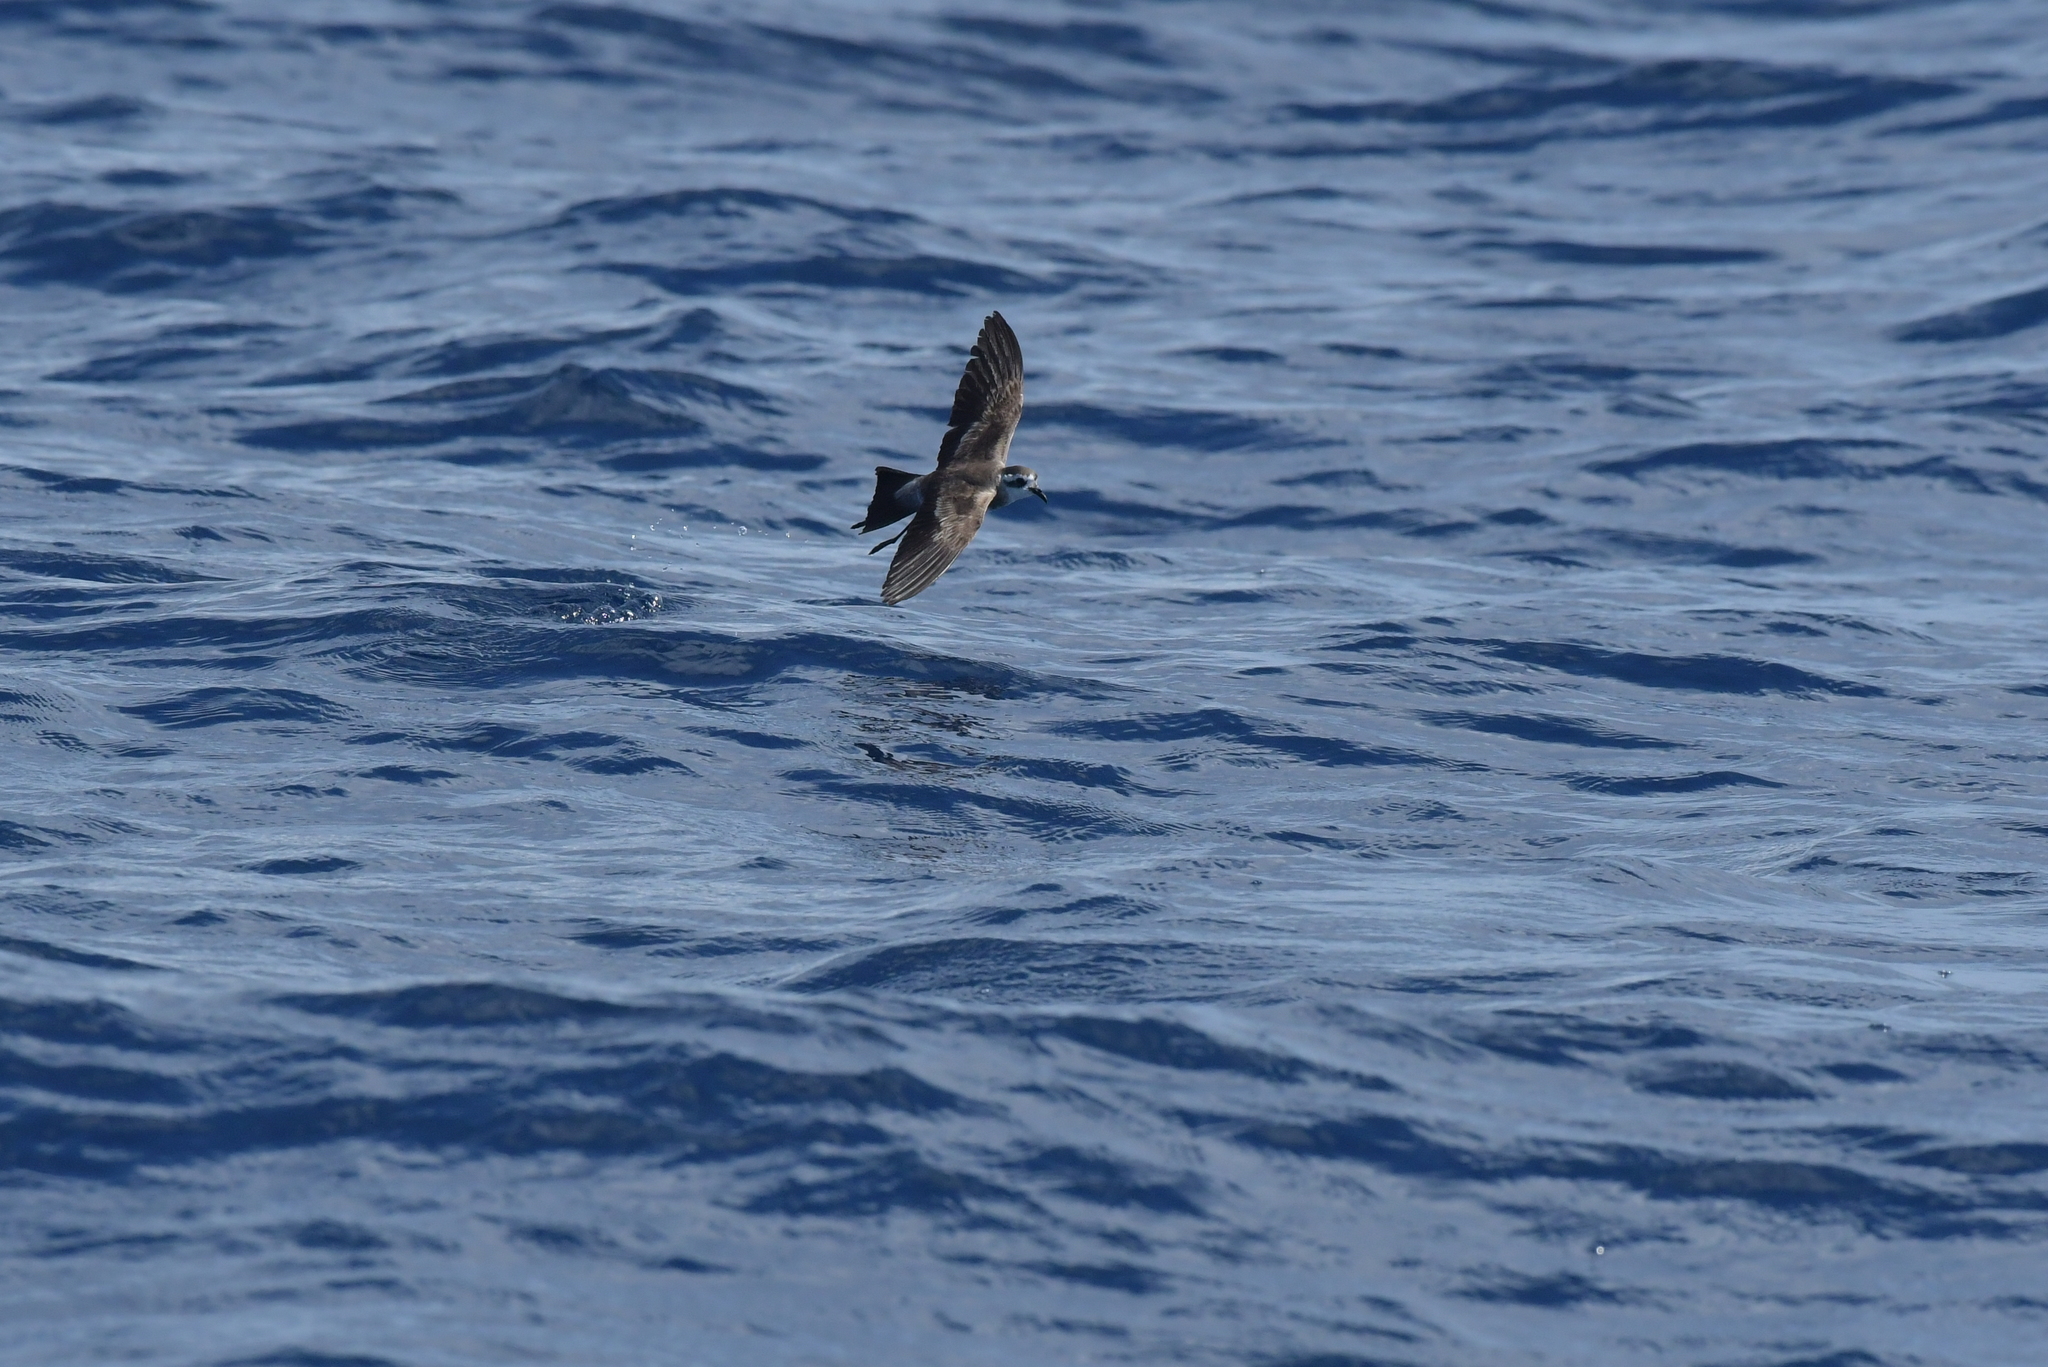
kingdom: Animalia
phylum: Chordata
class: Aves
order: Procellariiformes
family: Hydrobatidae
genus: Pelagodroma
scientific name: Pelagodroma marina
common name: White-faced storm-petrel
